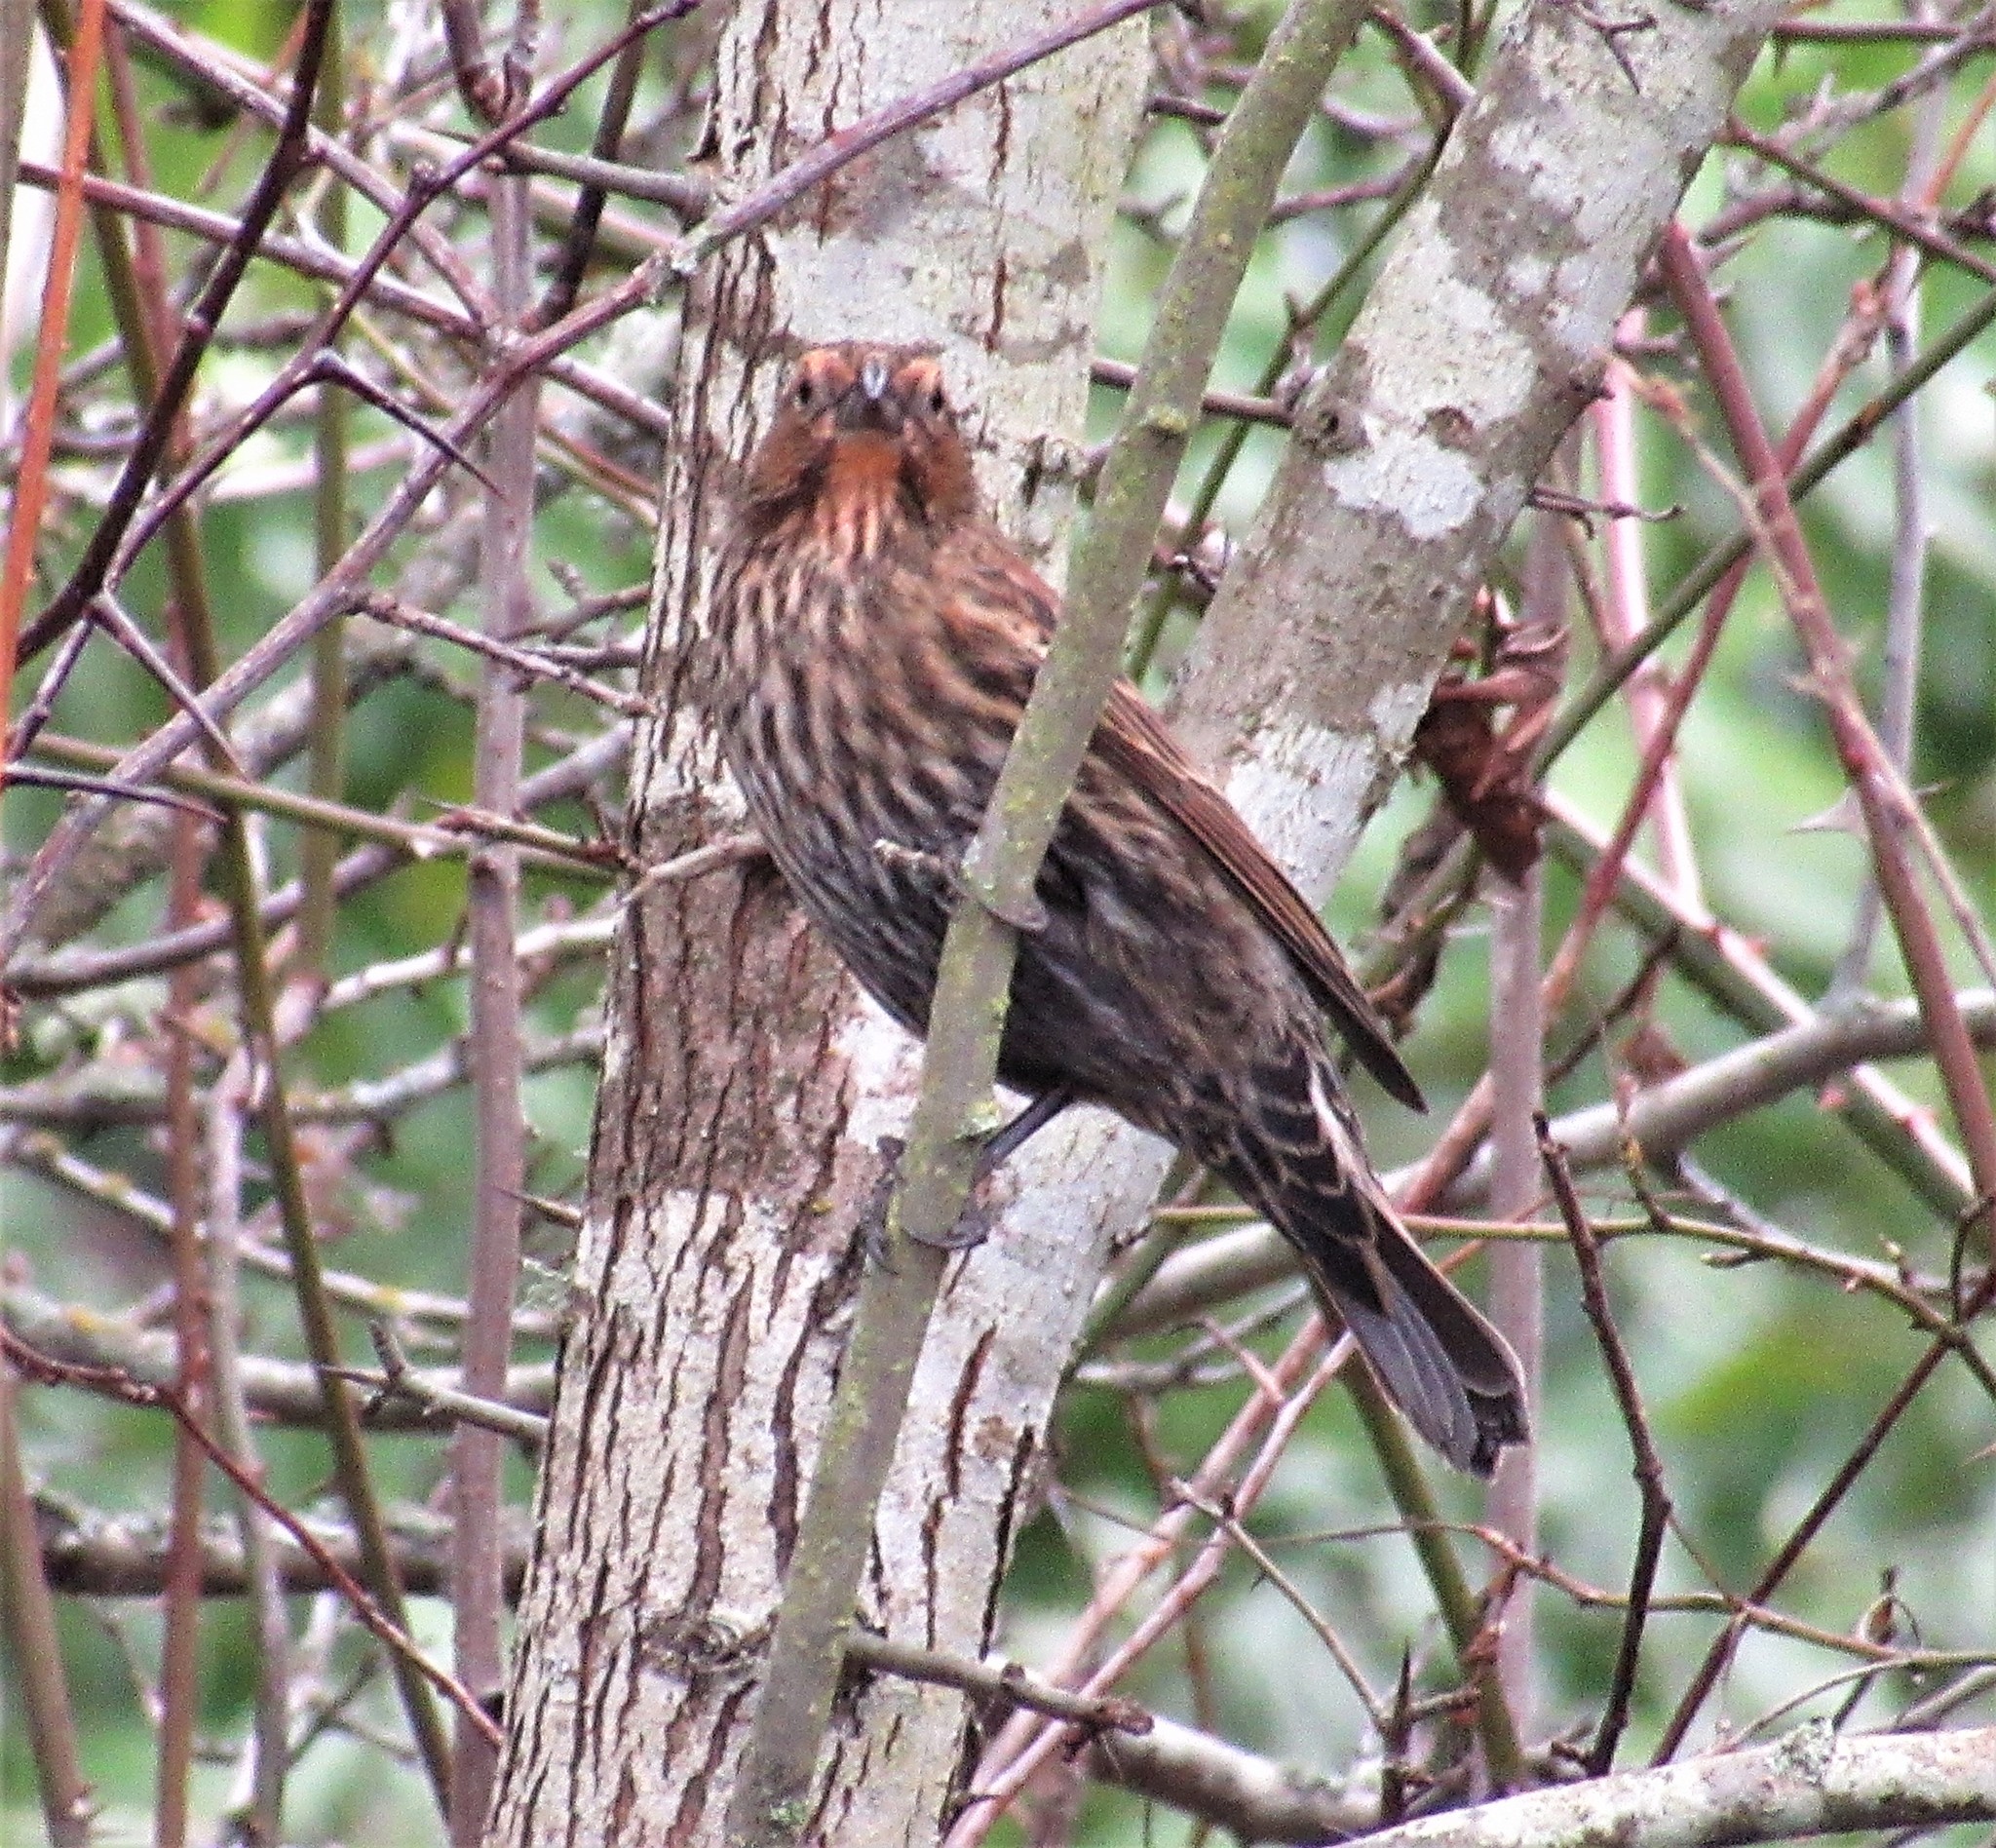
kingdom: Animalia
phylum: Chordata
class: Aves
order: Passeriformes
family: Icteridae
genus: Agelaius
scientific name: Agelaius phoeniceus
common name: Red-winged blackbird
